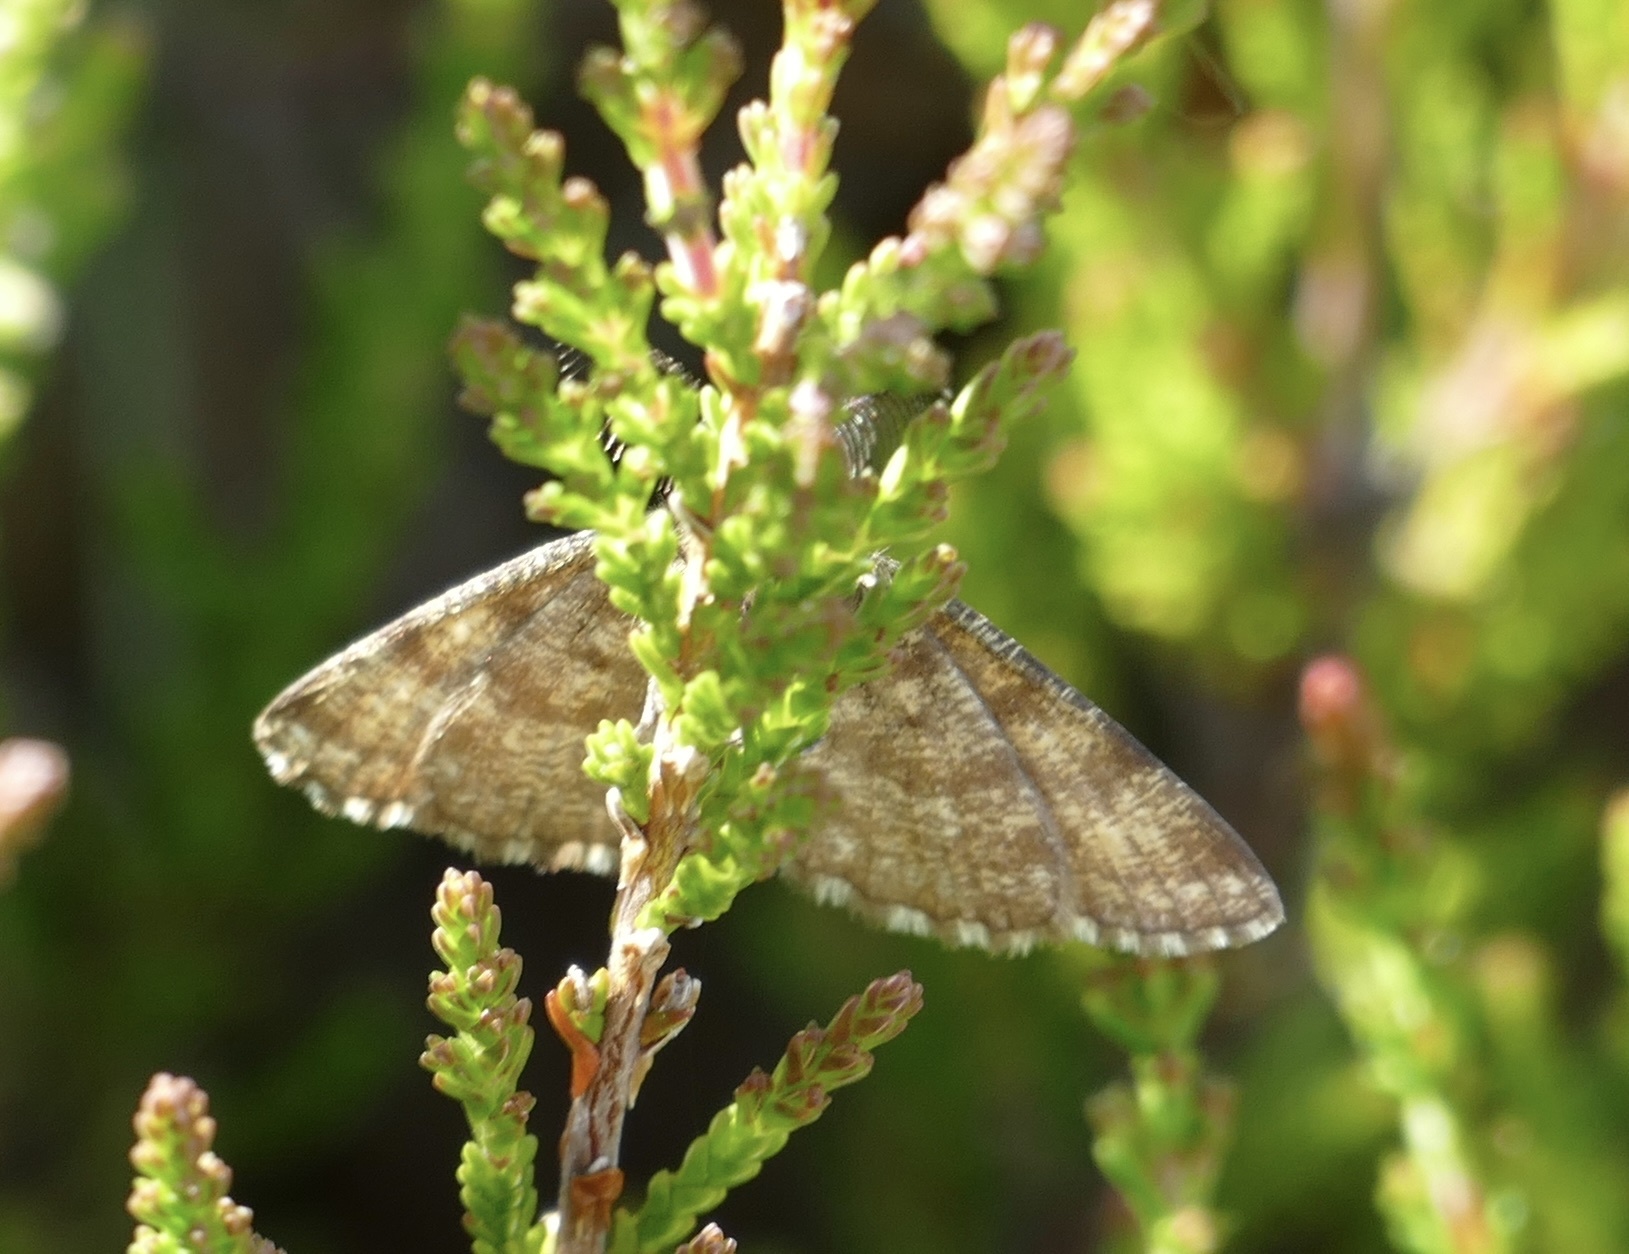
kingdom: Animalia
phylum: Arthropoda
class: Insecta
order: Lepidoptera
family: Geometridae
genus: Ematurga
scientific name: Ematurga atomaria
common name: Common heath
